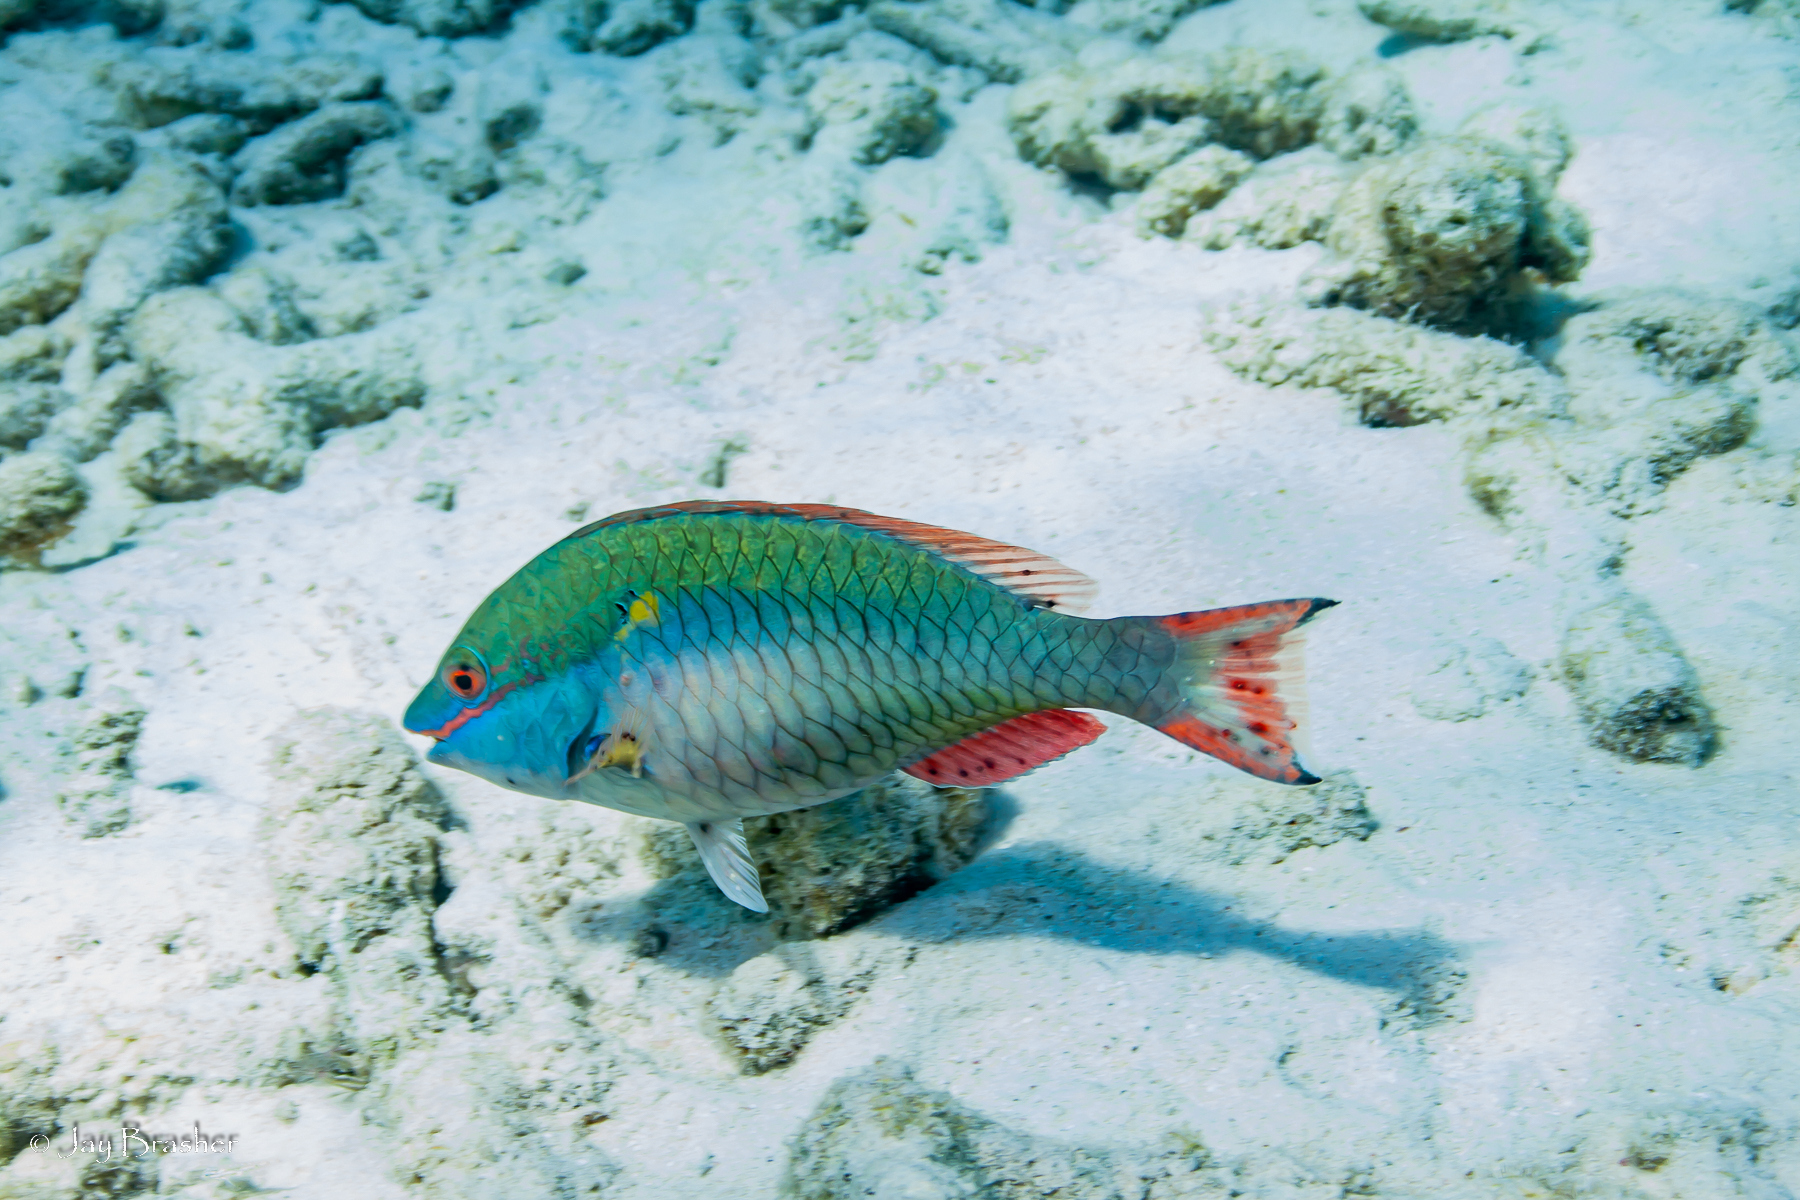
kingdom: Animalia
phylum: Chordata
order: Perciformes
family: Scaridae
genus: Sparisoma
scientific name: Sparisoma aurofrenatum
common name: Redband parrotfish
